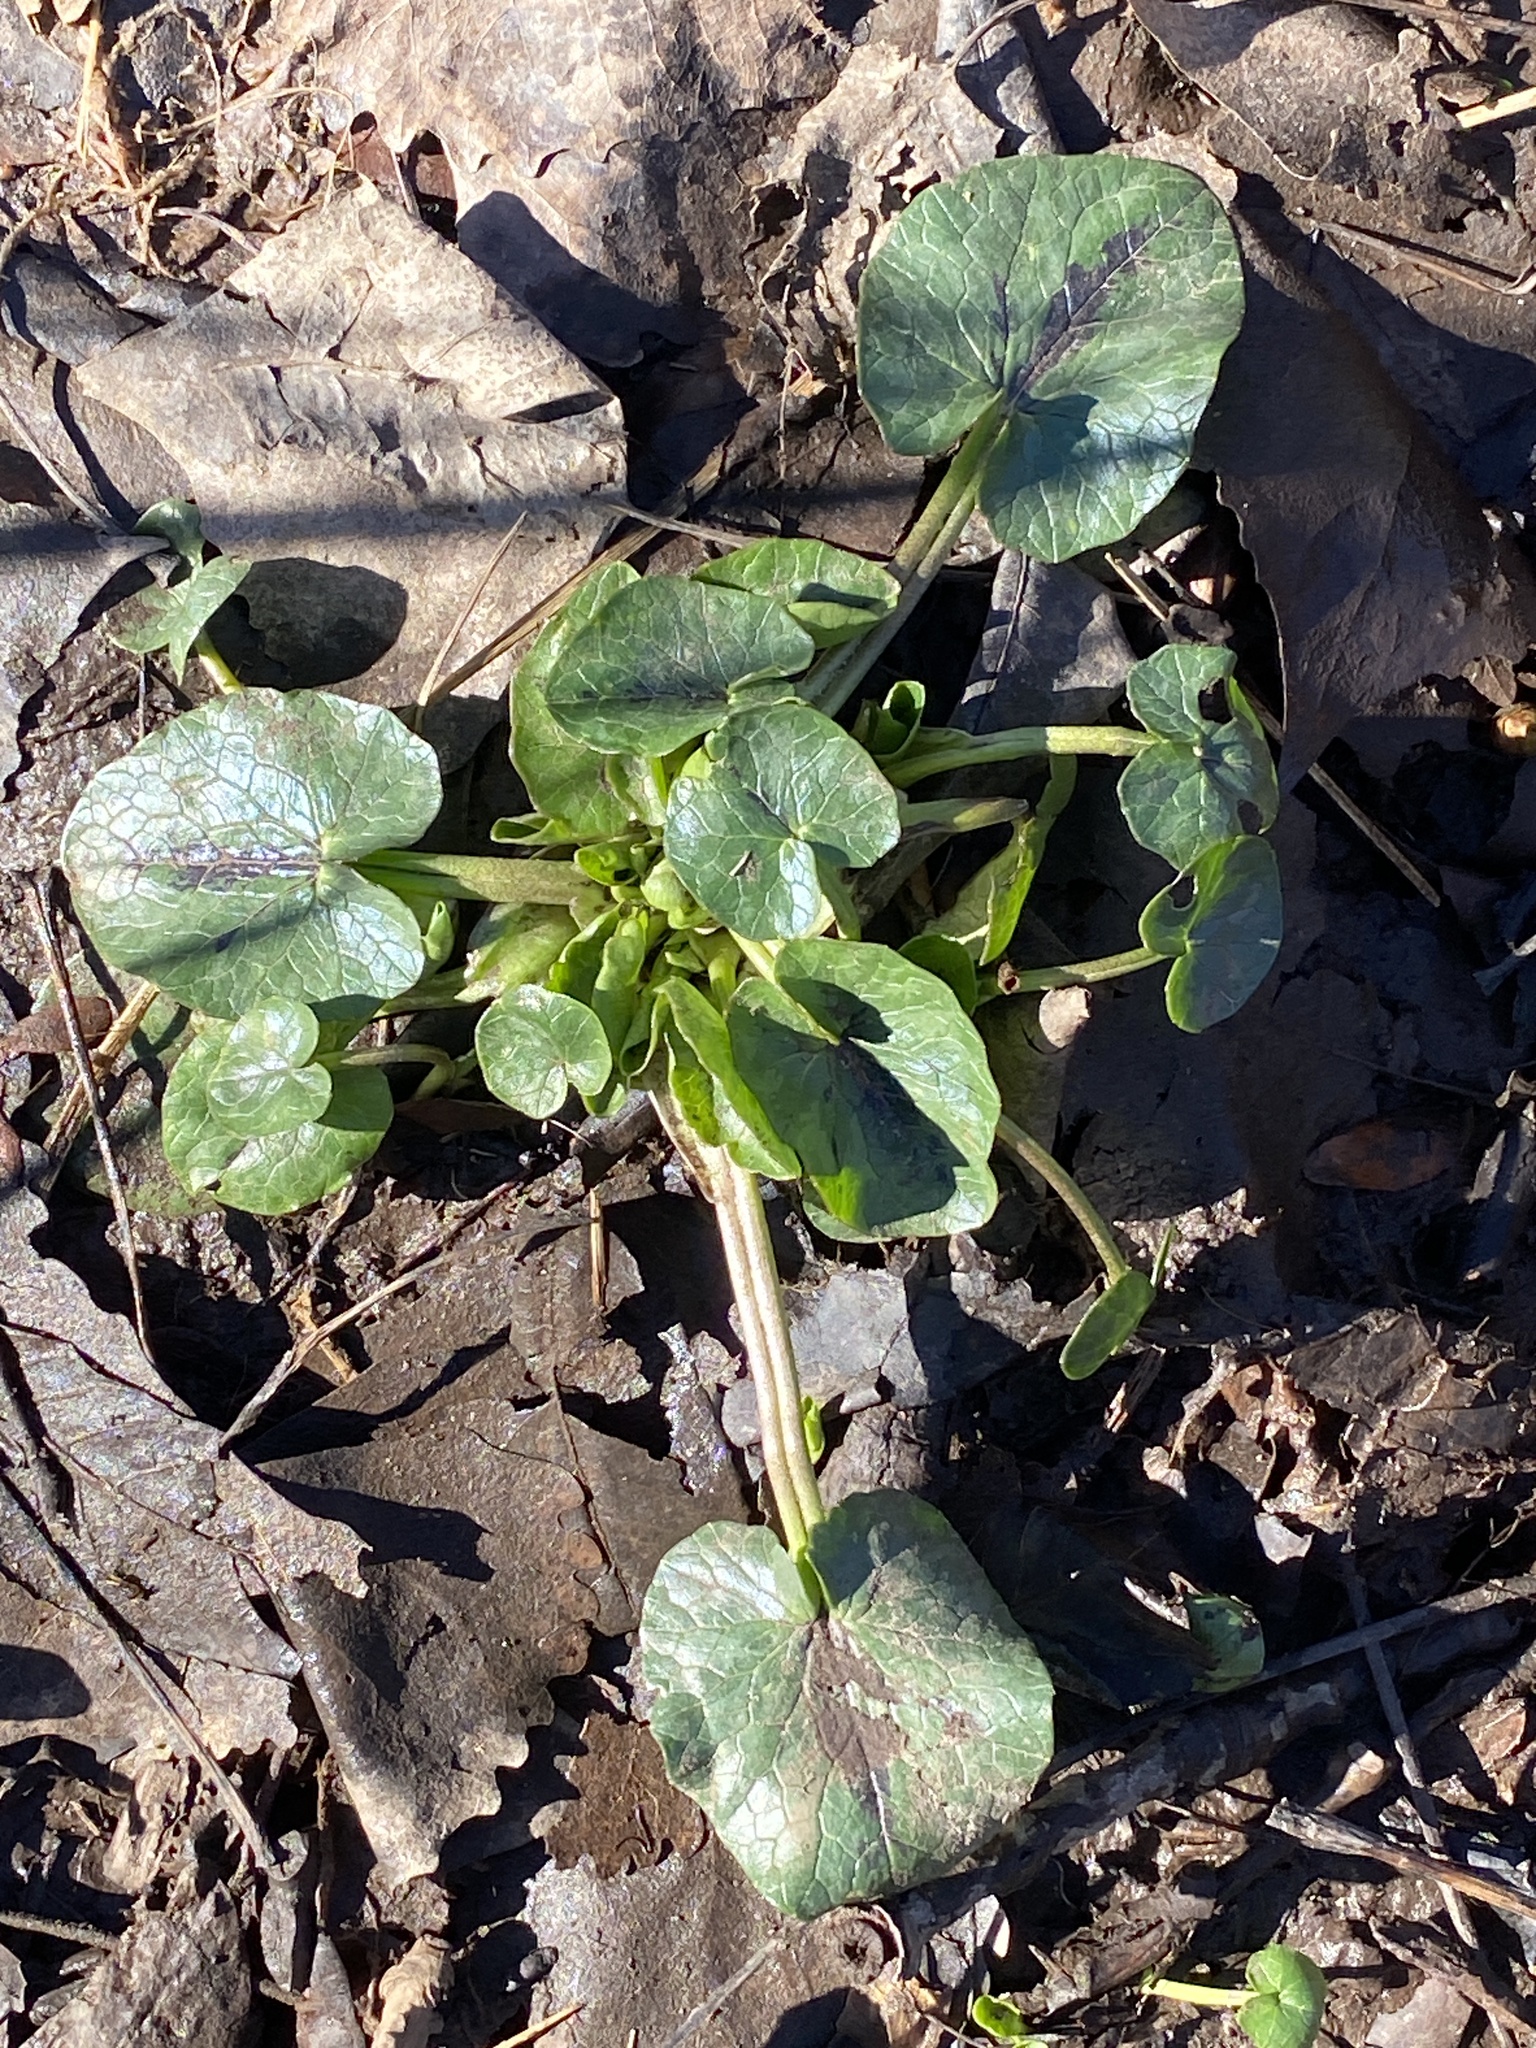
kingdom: Plantae
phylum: Tracheophyta
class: Magnoliopsida
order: Ranunculales
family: Ranunculaceae
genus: Ficaria
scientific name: Ficaria verna
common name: Lesser celandine
